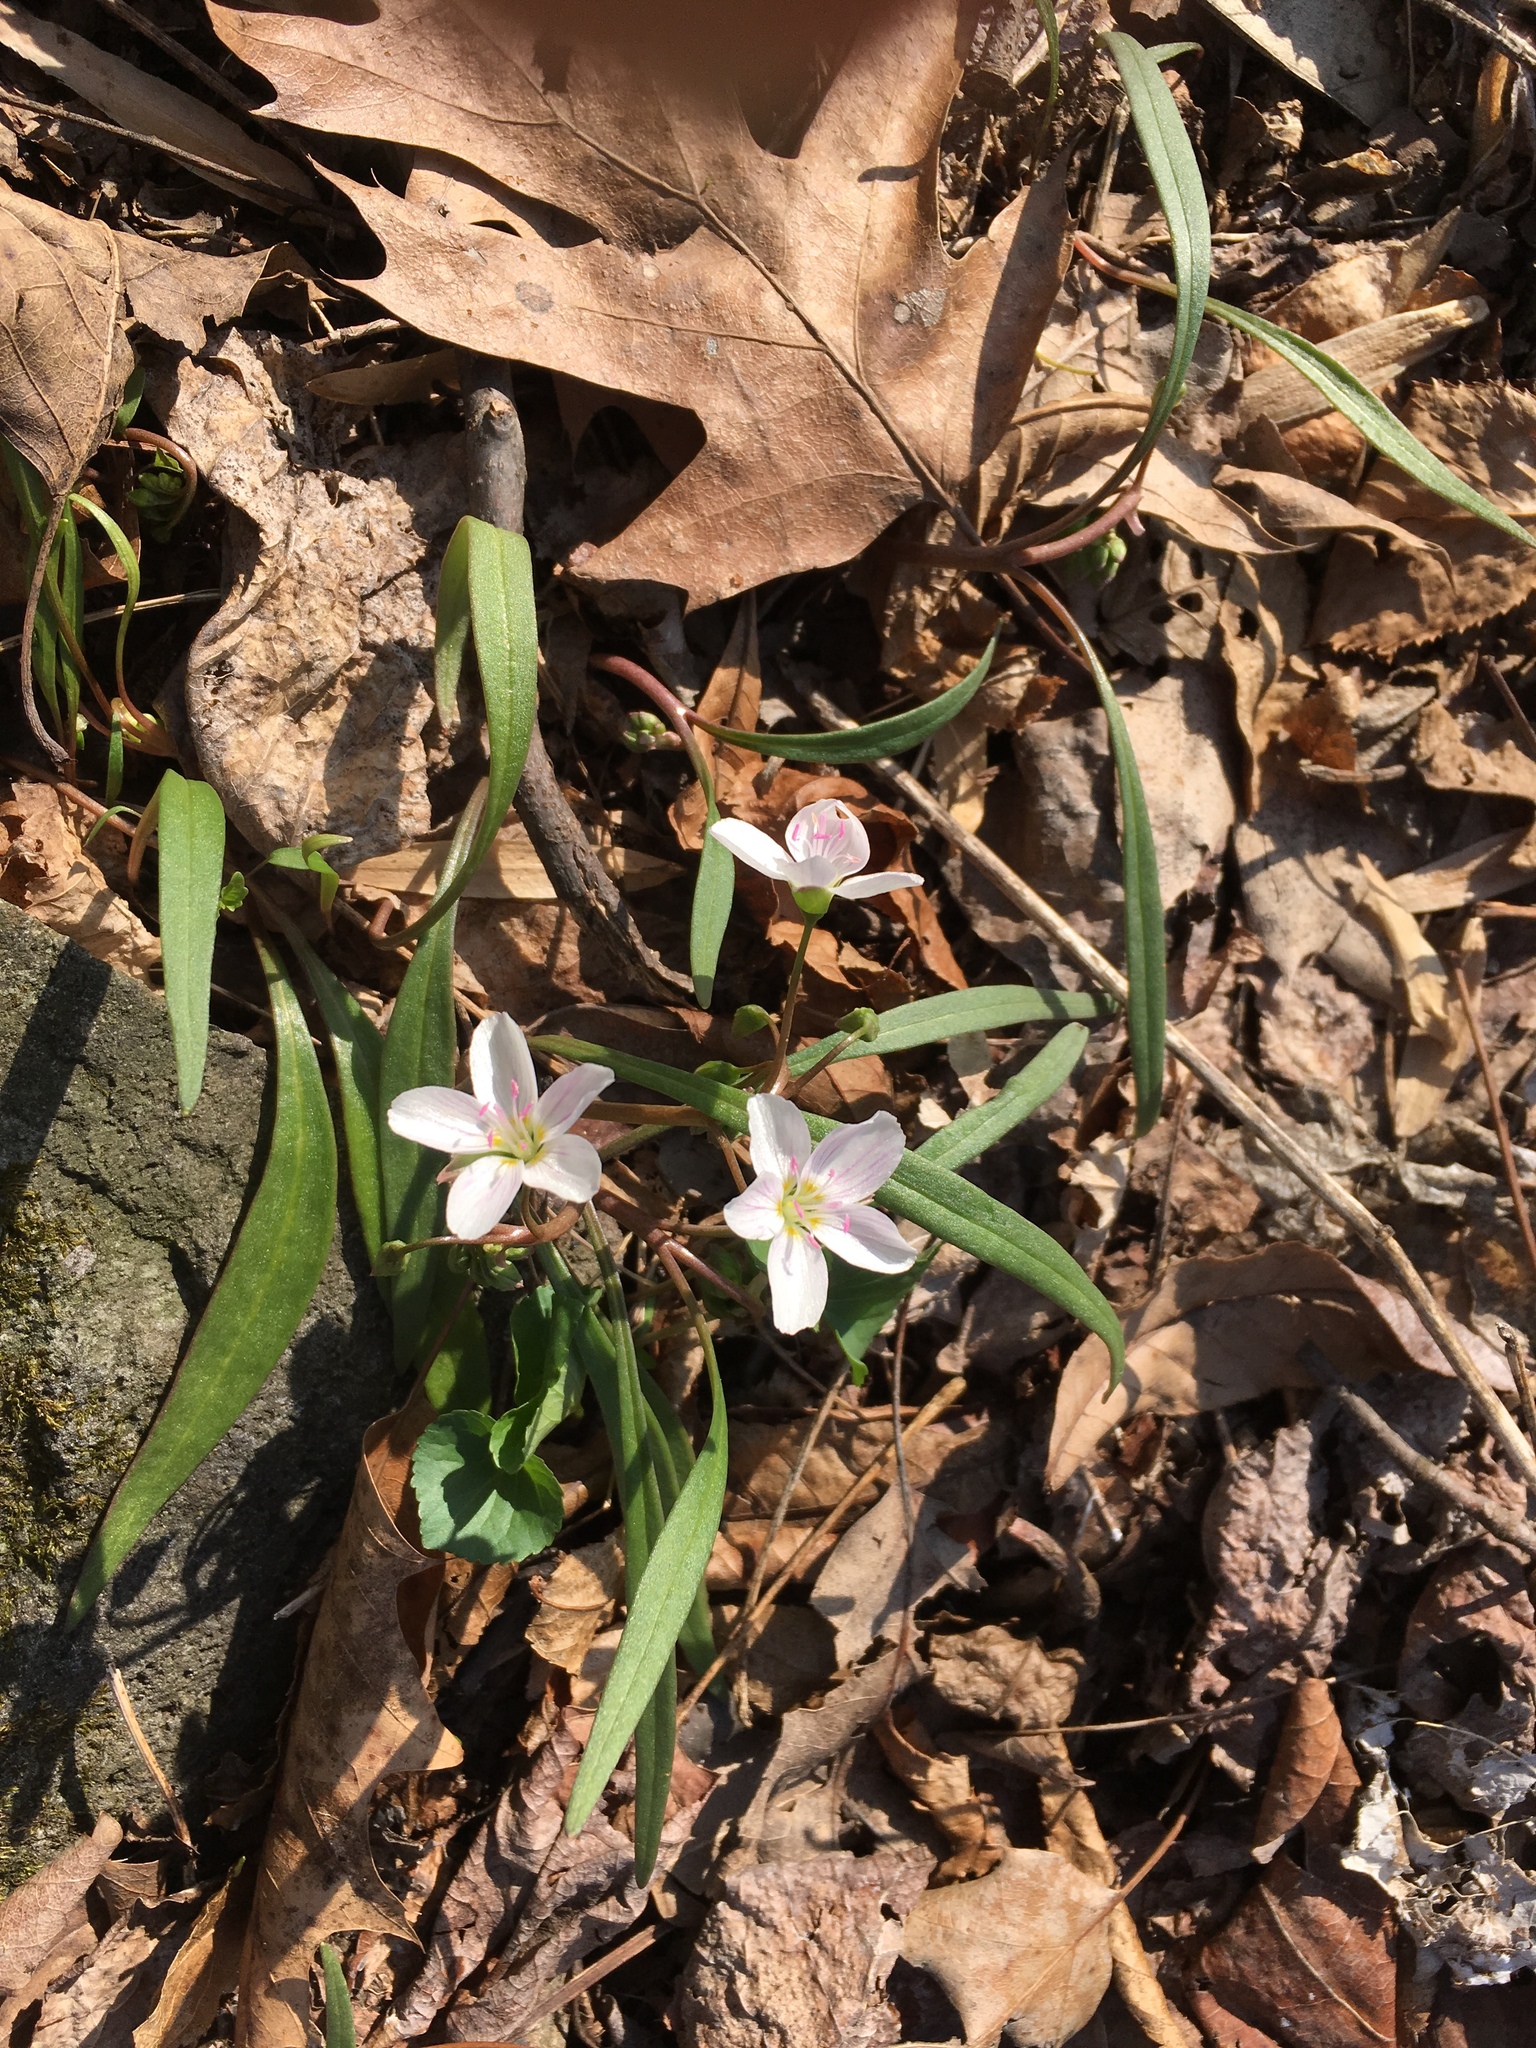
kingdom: Plantae
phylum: Tracheophyta
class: Magnoliopsida
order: Caryophyllales
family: Montiaceae
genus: Claytonia
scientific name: Claytonia virginica
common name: Virginia springbeauty
